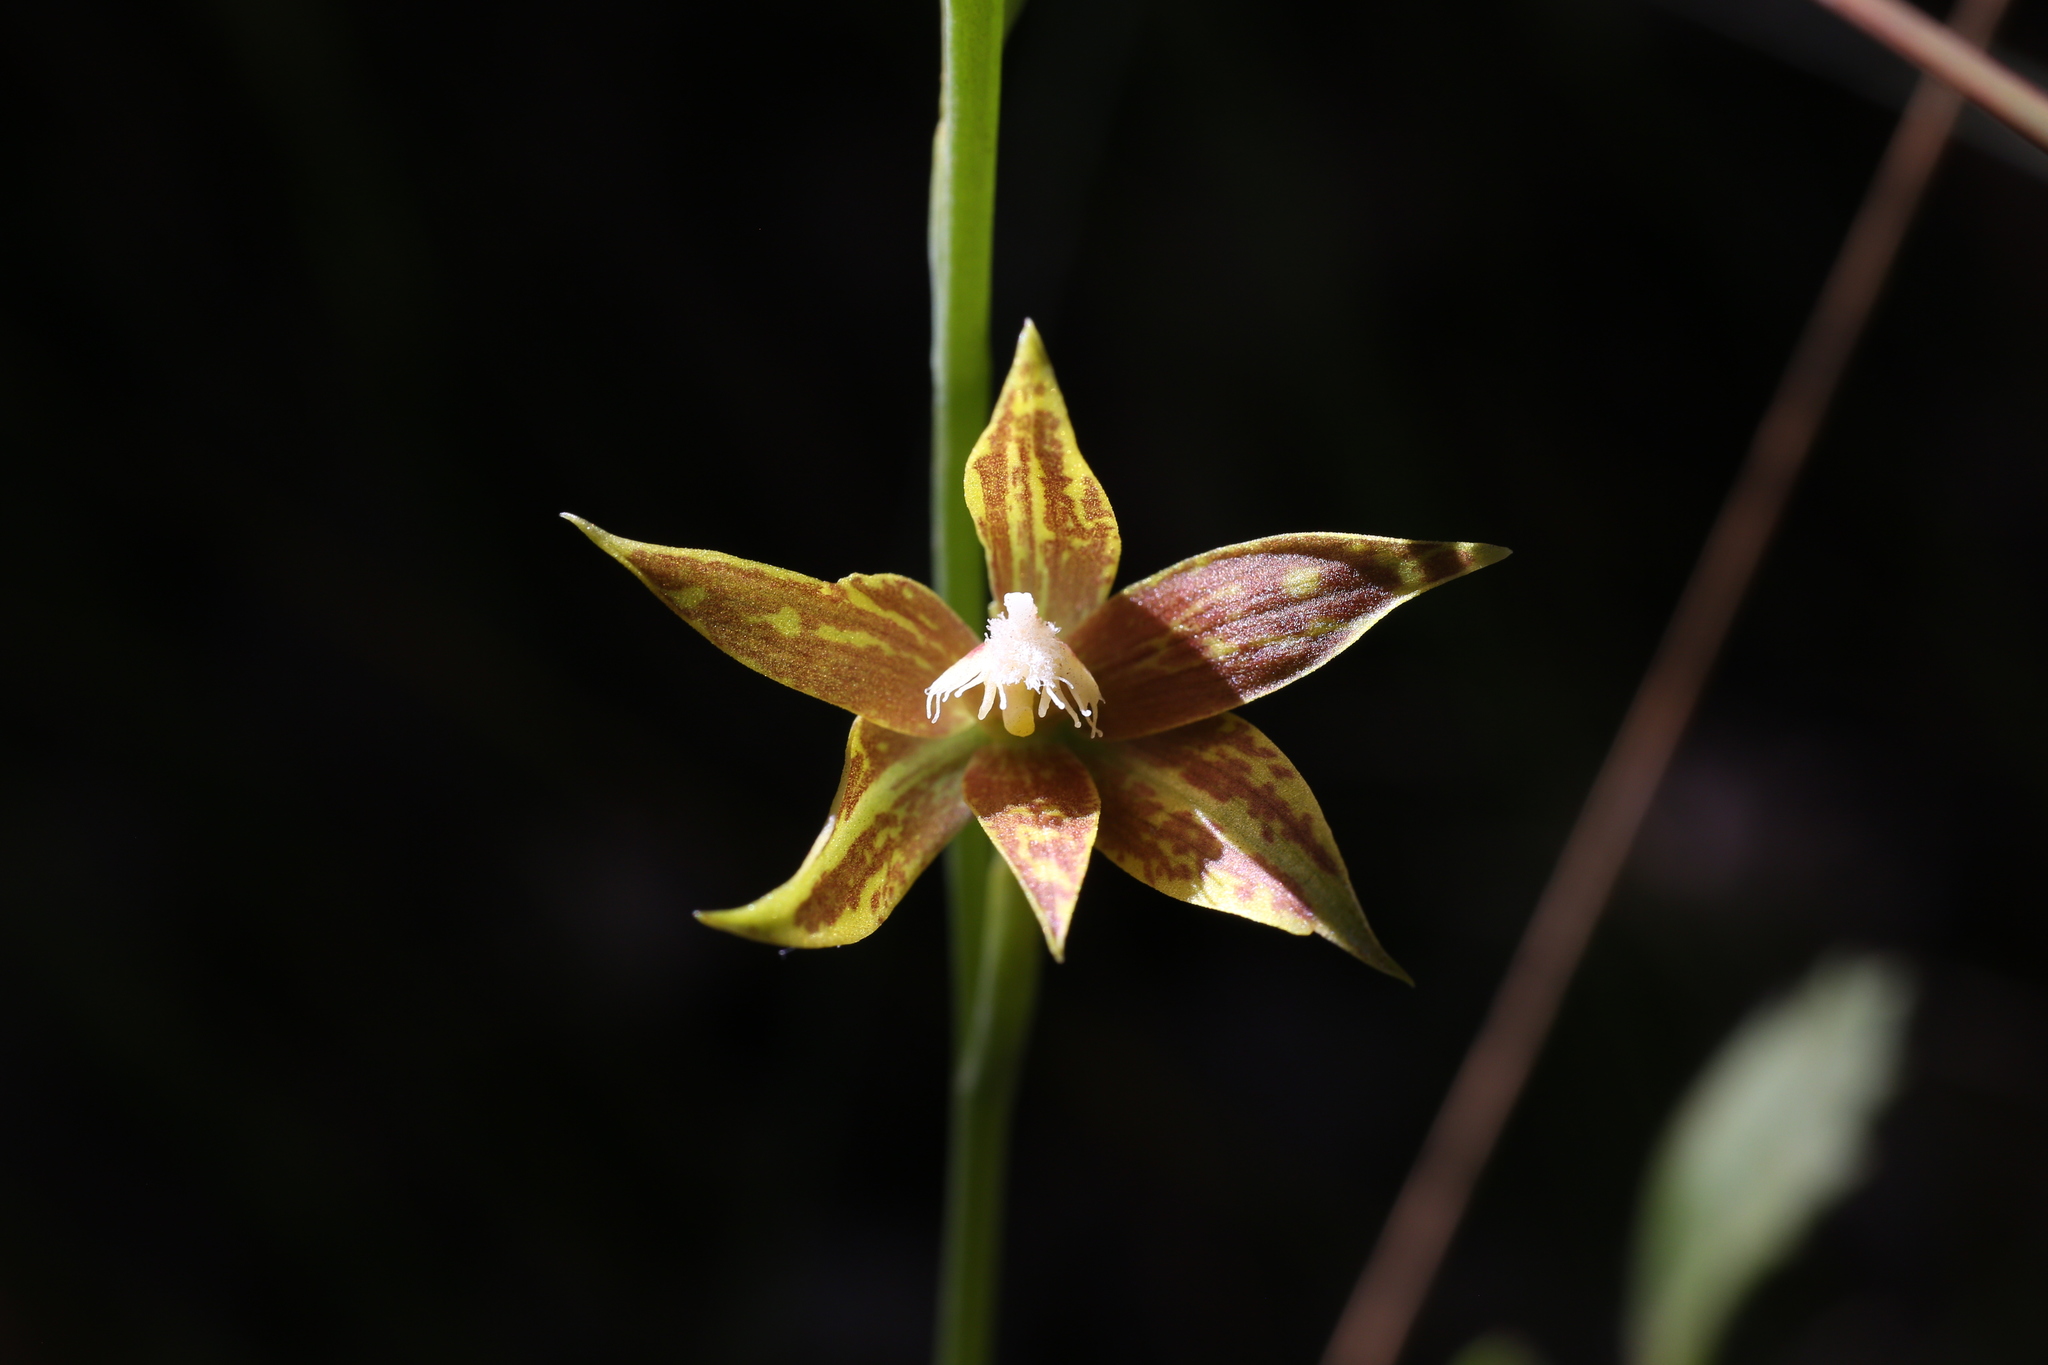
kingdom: Plantae
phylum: Tracheophyta
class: Liliopsida
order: Asparagales
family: Orchidaceae
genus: Thelymitra
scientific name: Thelymitra fuscolutea
